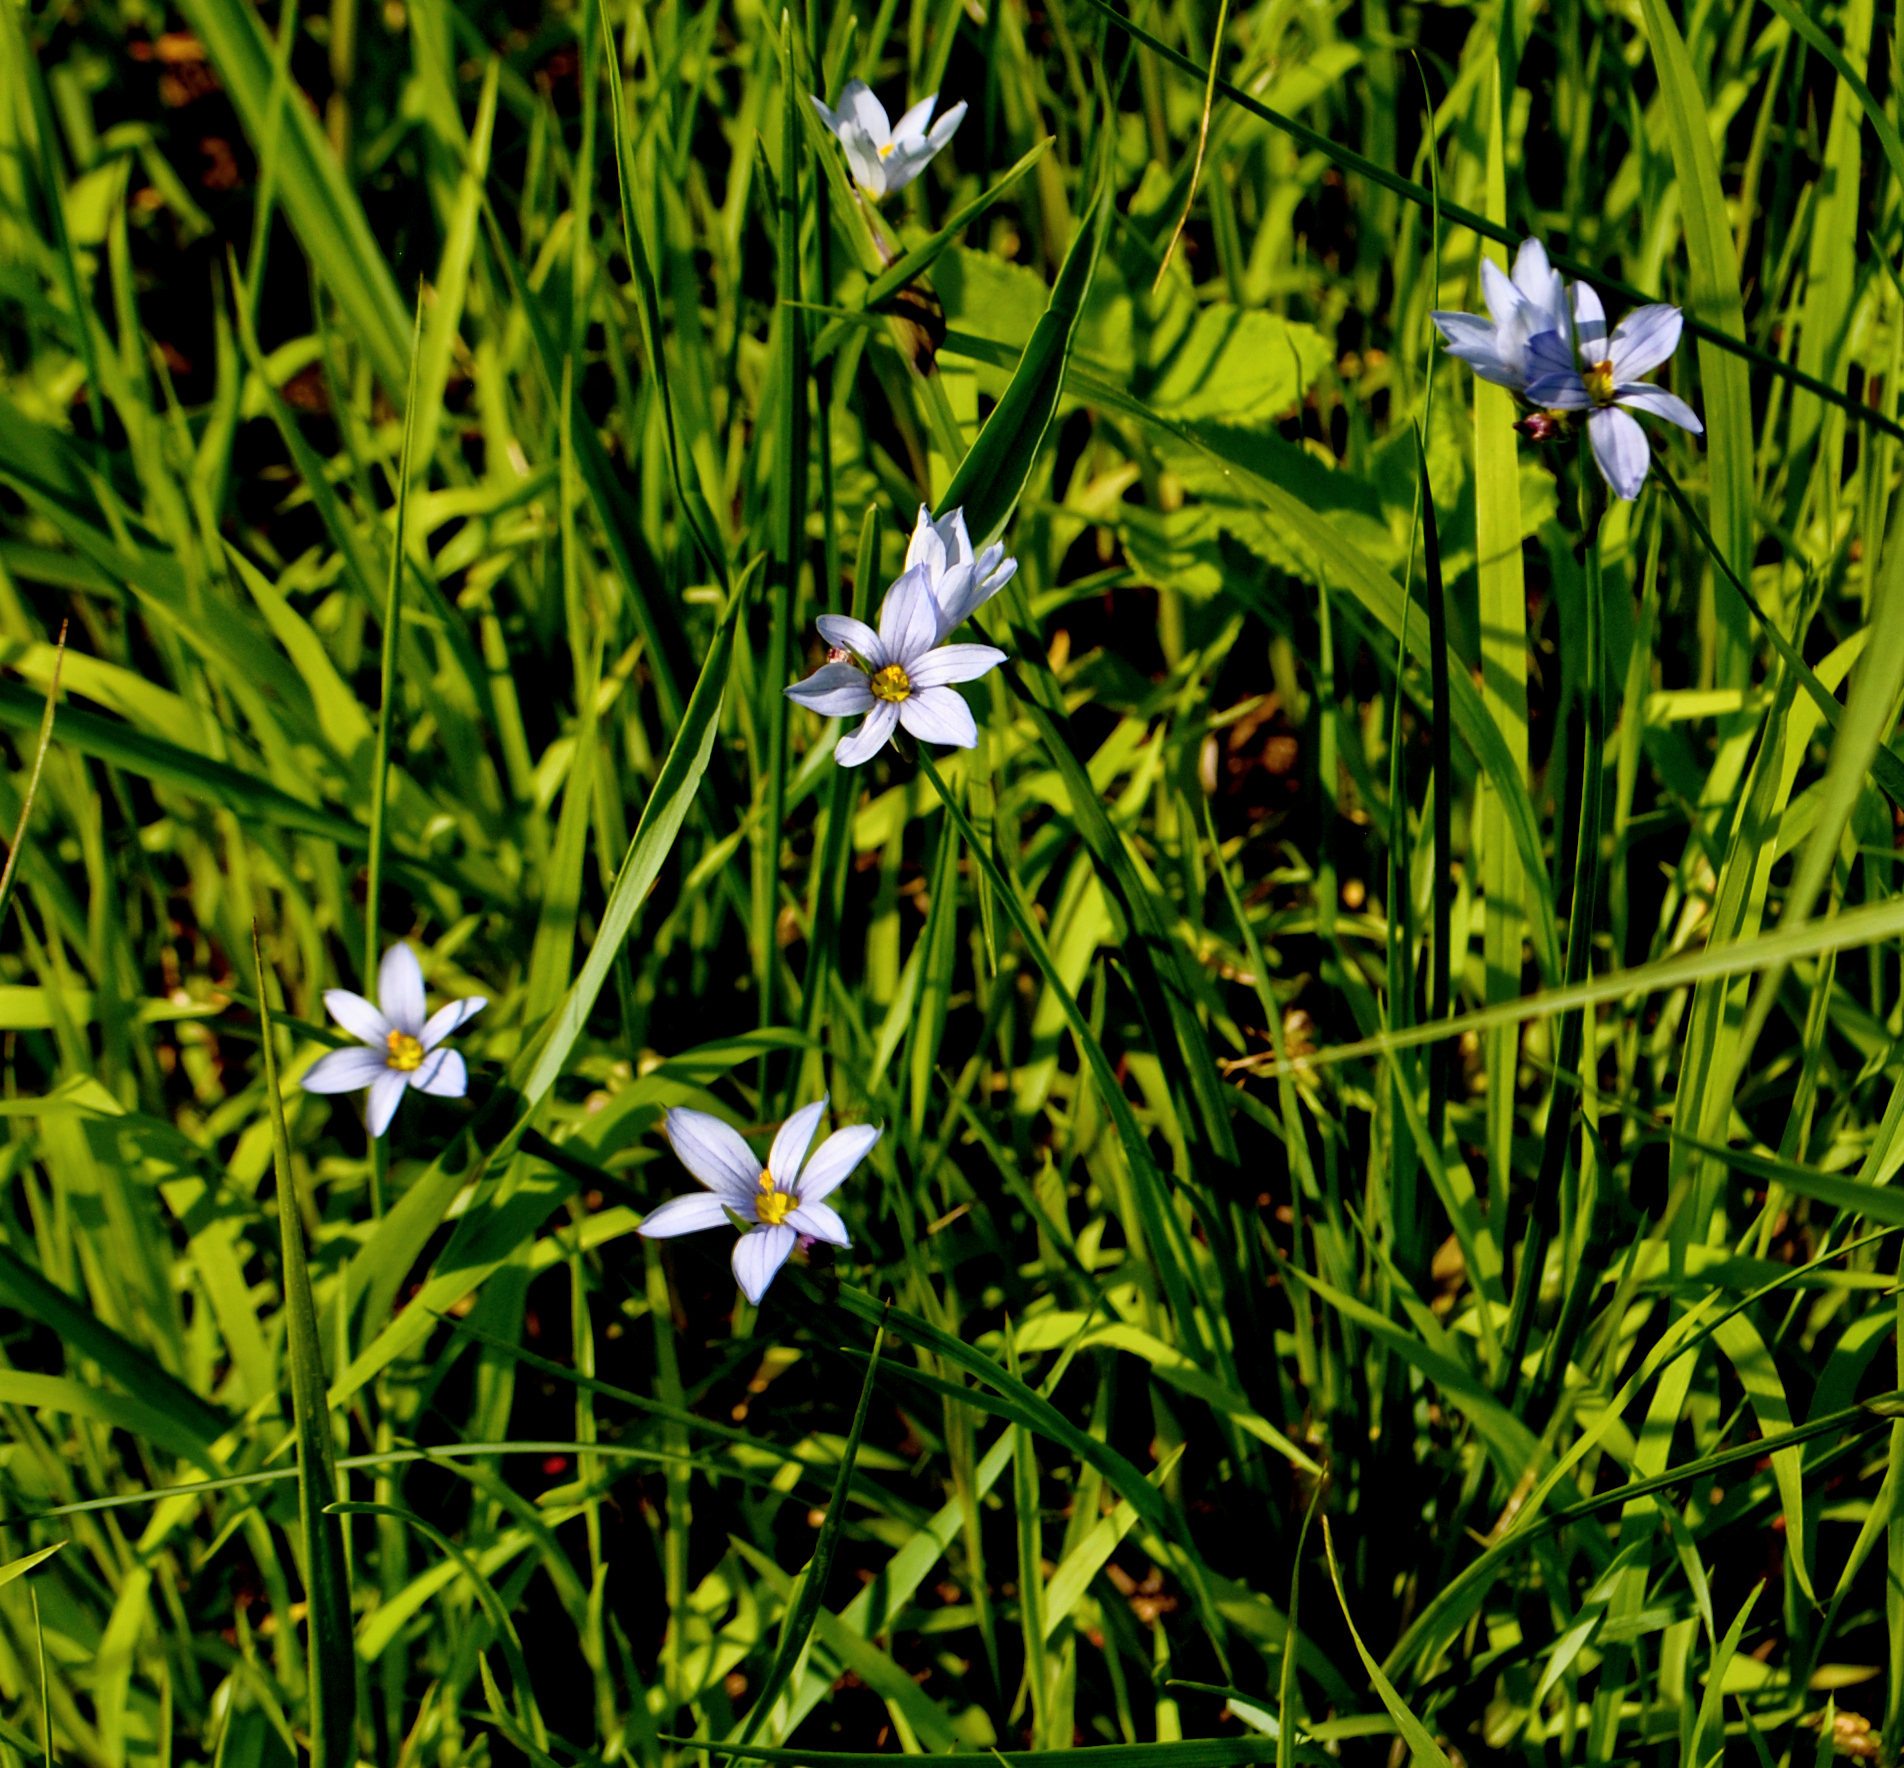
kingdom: Plantae
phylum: Tracheophyta
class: Liliopsida
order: Asparagales
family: Iridaceae
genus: Sisyrinchium
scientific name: Sisyrinchium campestre
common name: Prairie blue-eyed-grass
